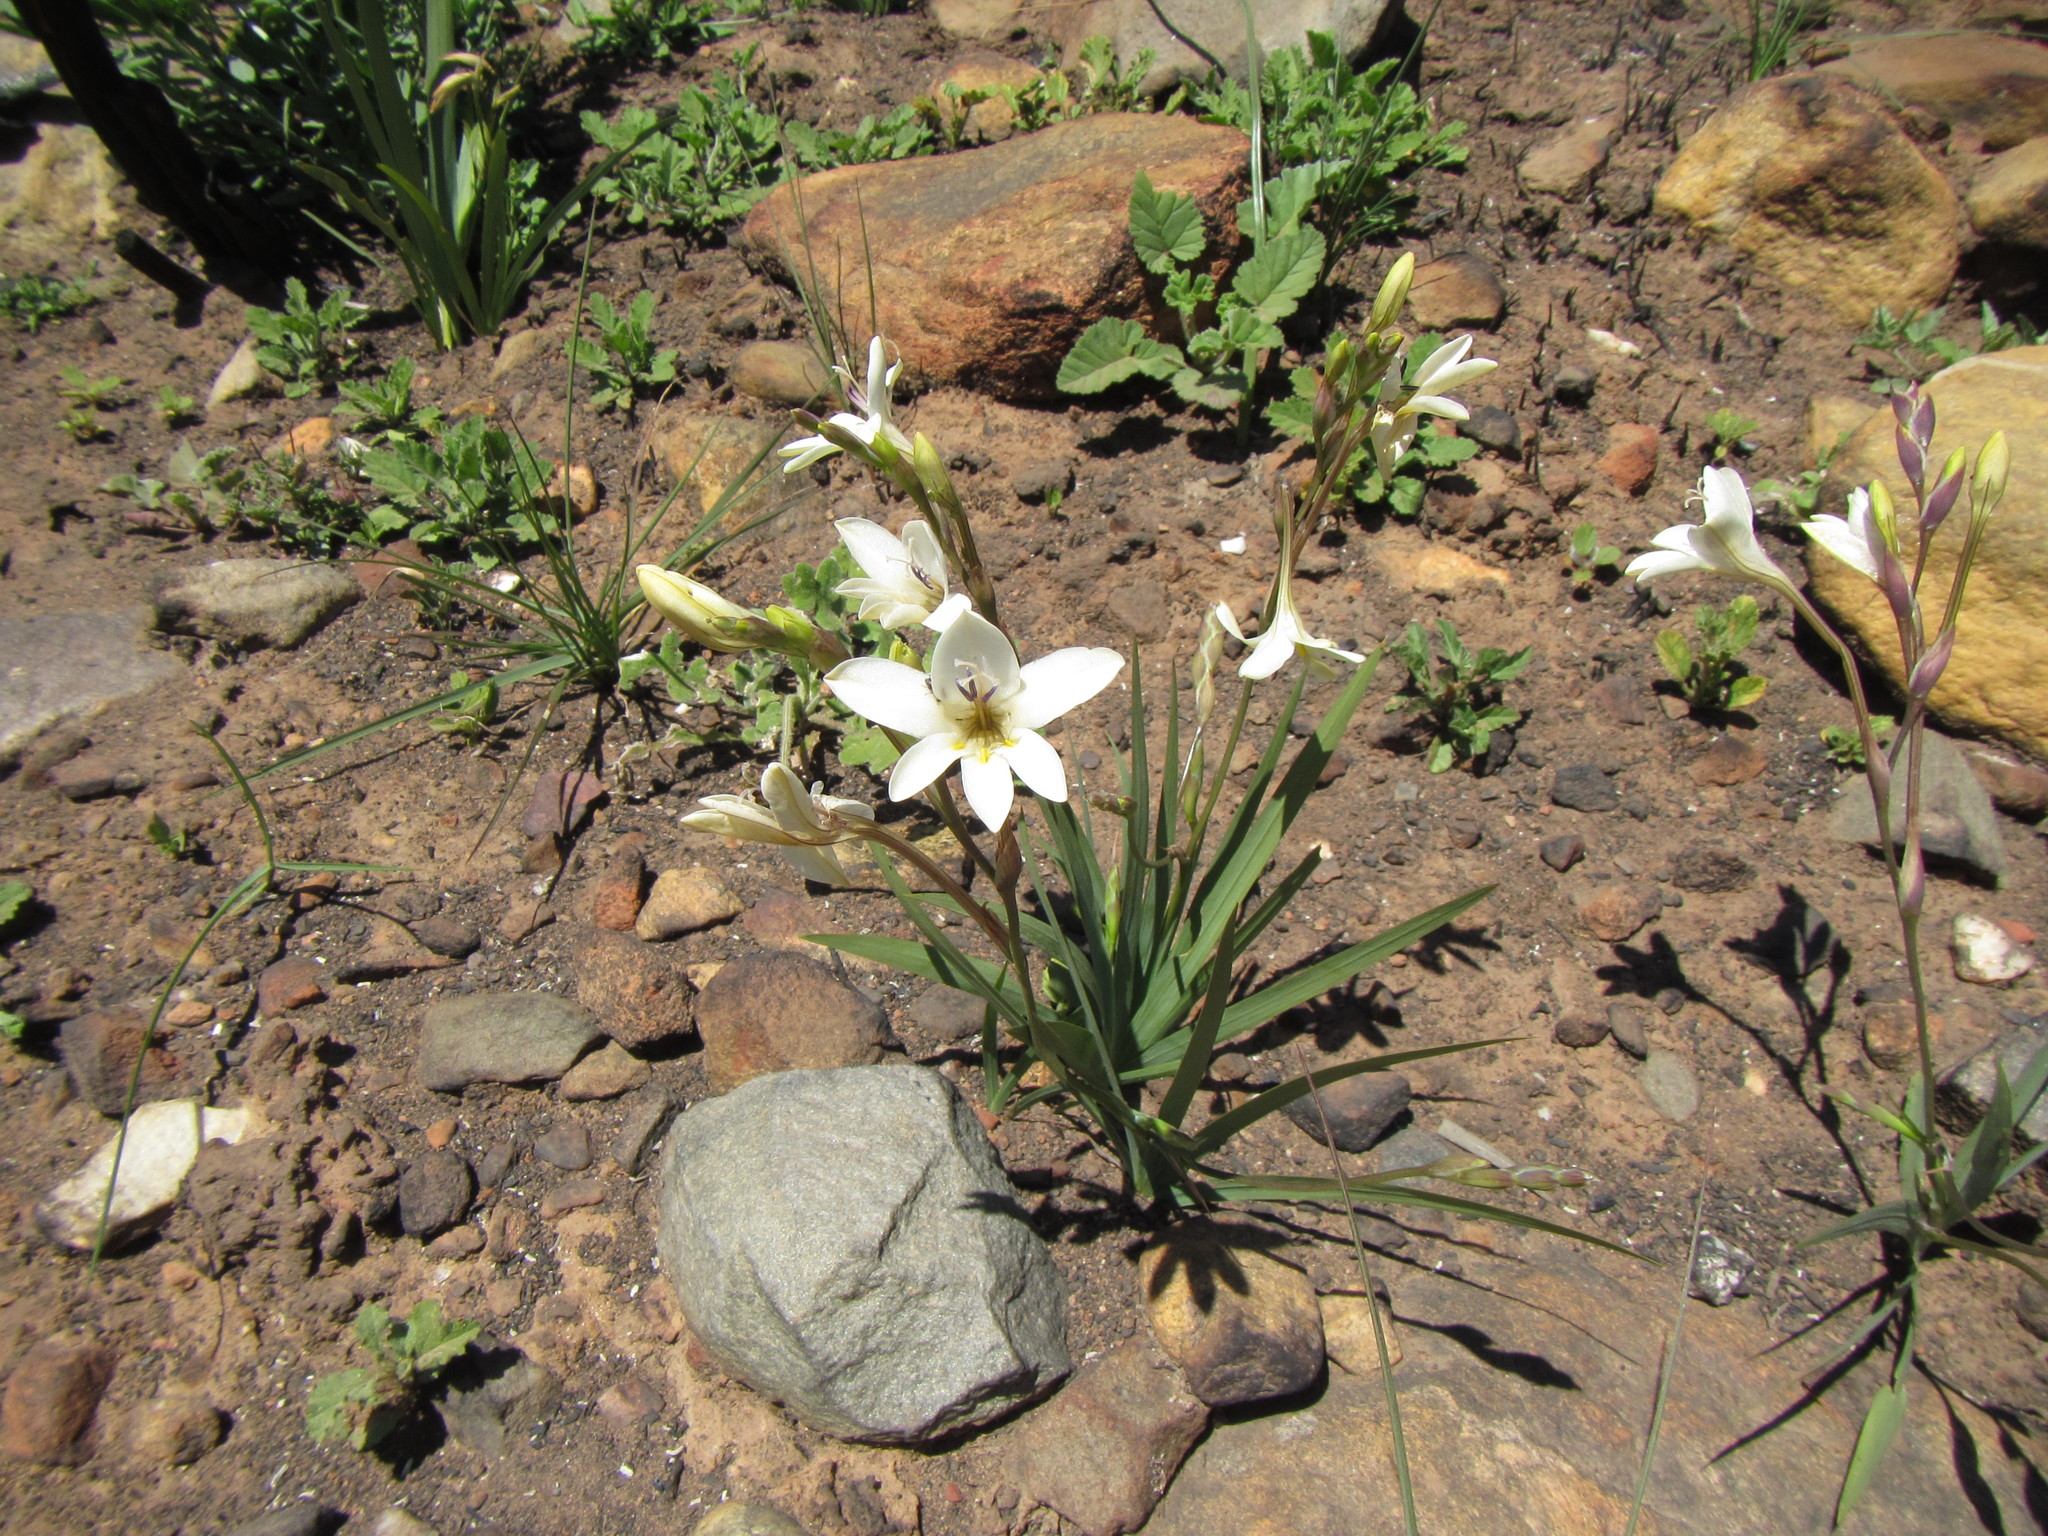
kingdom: Plantae
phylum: Tracheophyta
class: Liliopsida
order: Asparagales
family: Iridaceae
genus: Tritonia
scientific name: Tritonia pallida
